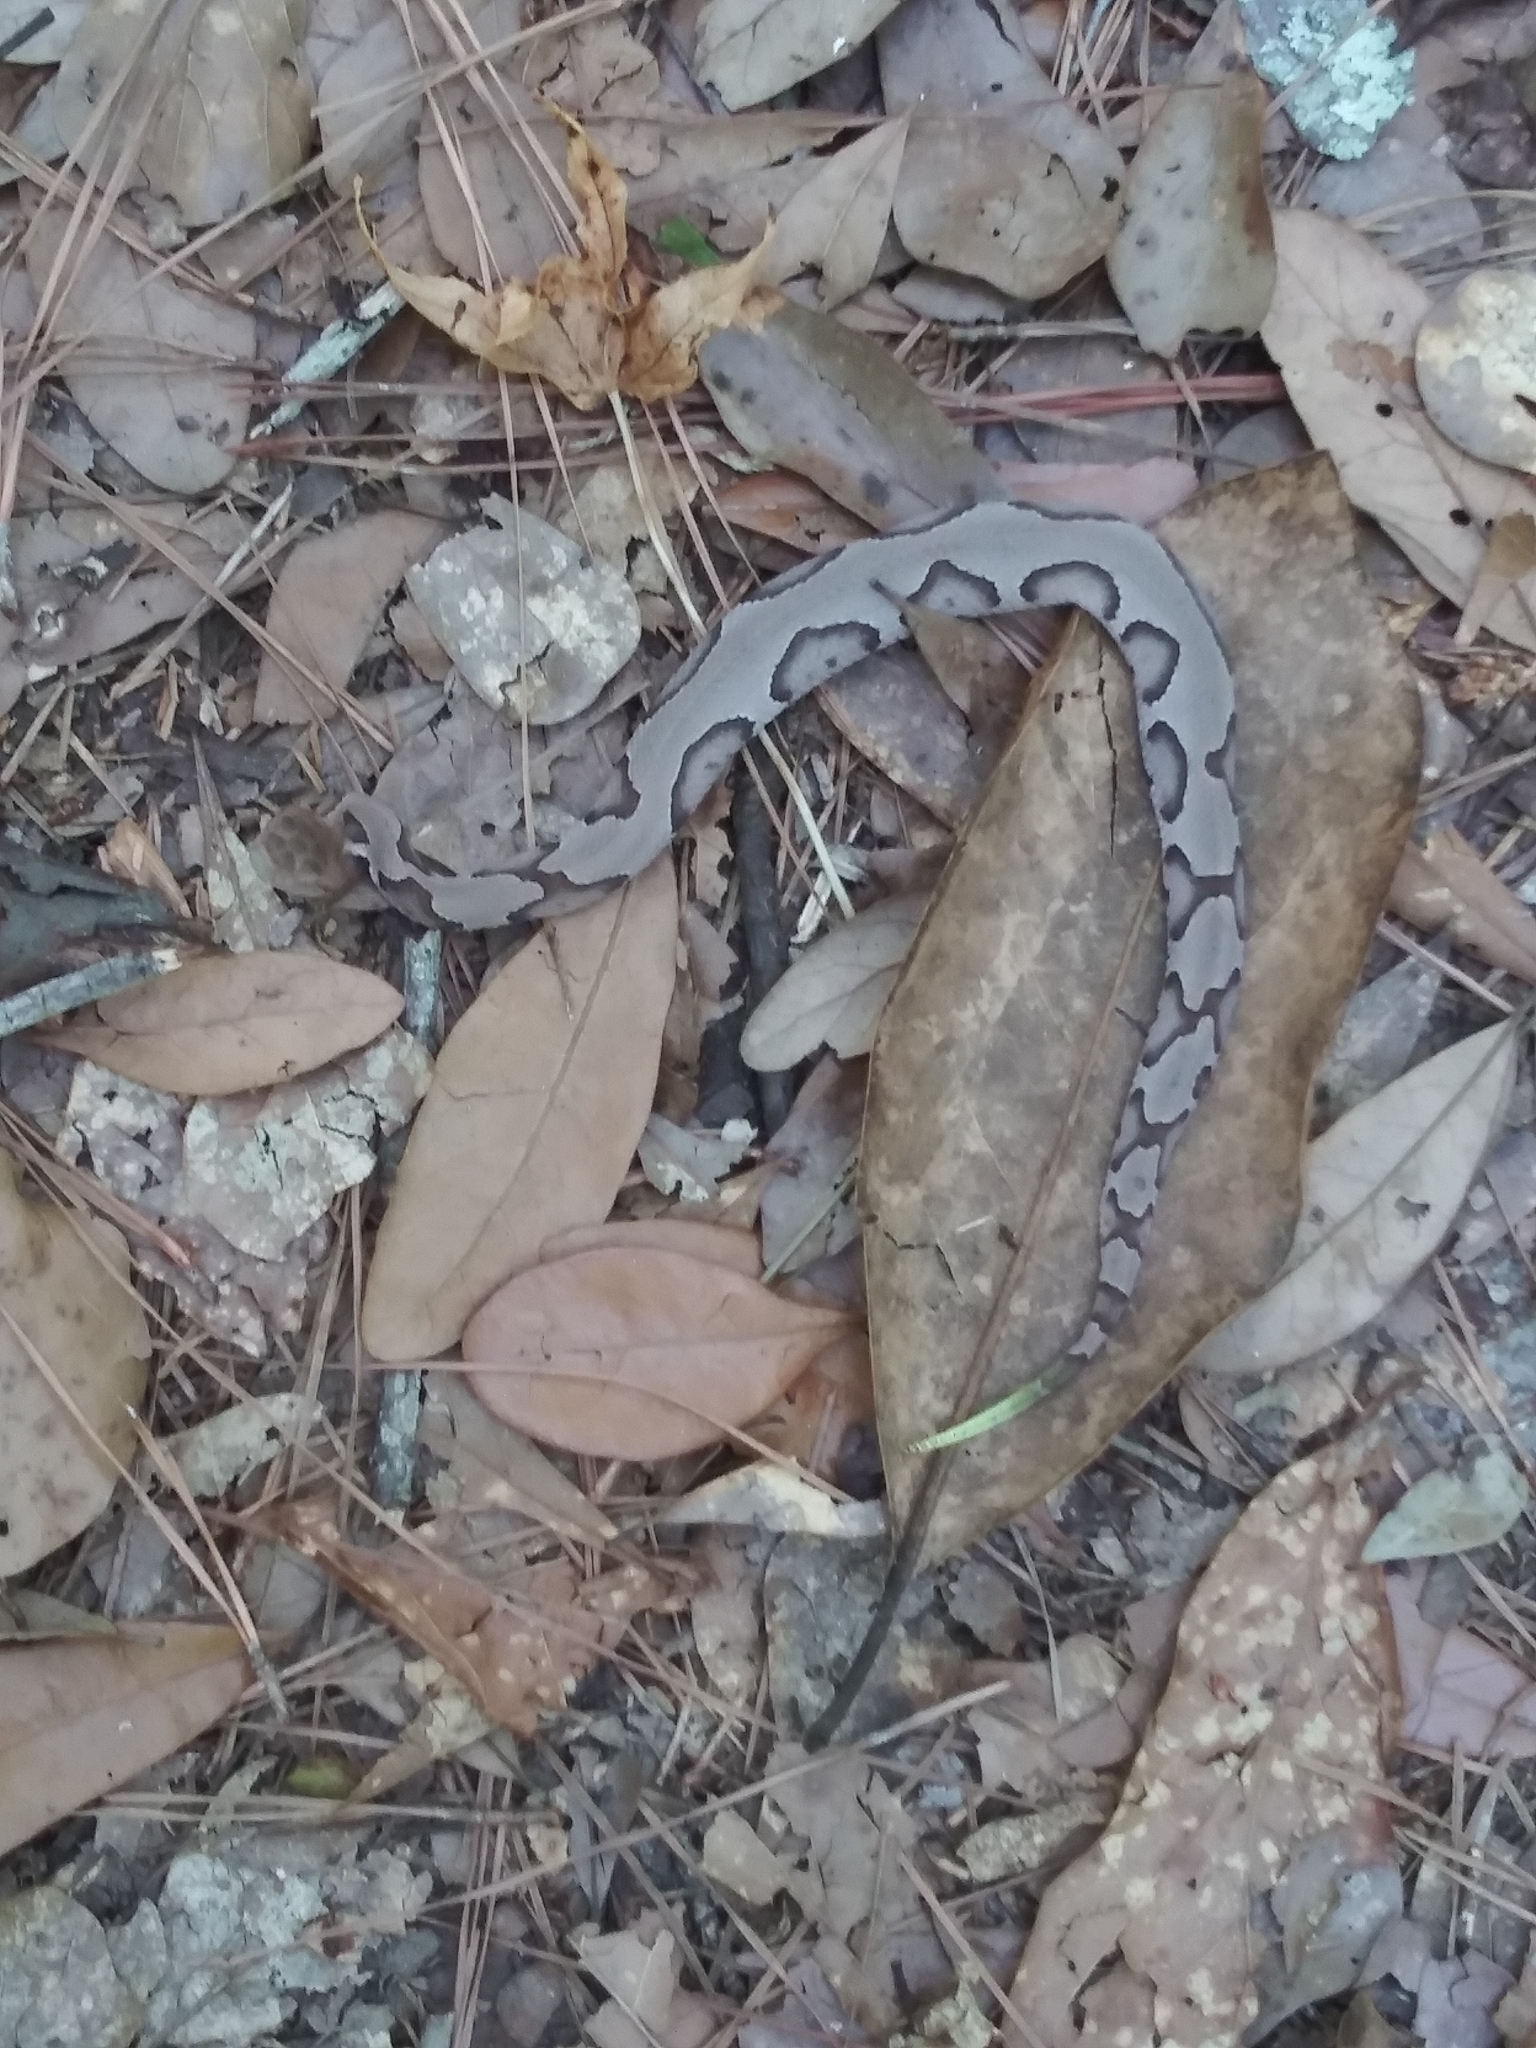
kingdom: Animalia
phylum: Chordata
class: Squamata
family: Viperidae
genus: Agkistrodon
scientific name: Agkistrodon contortrix
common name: Northern copperhead
